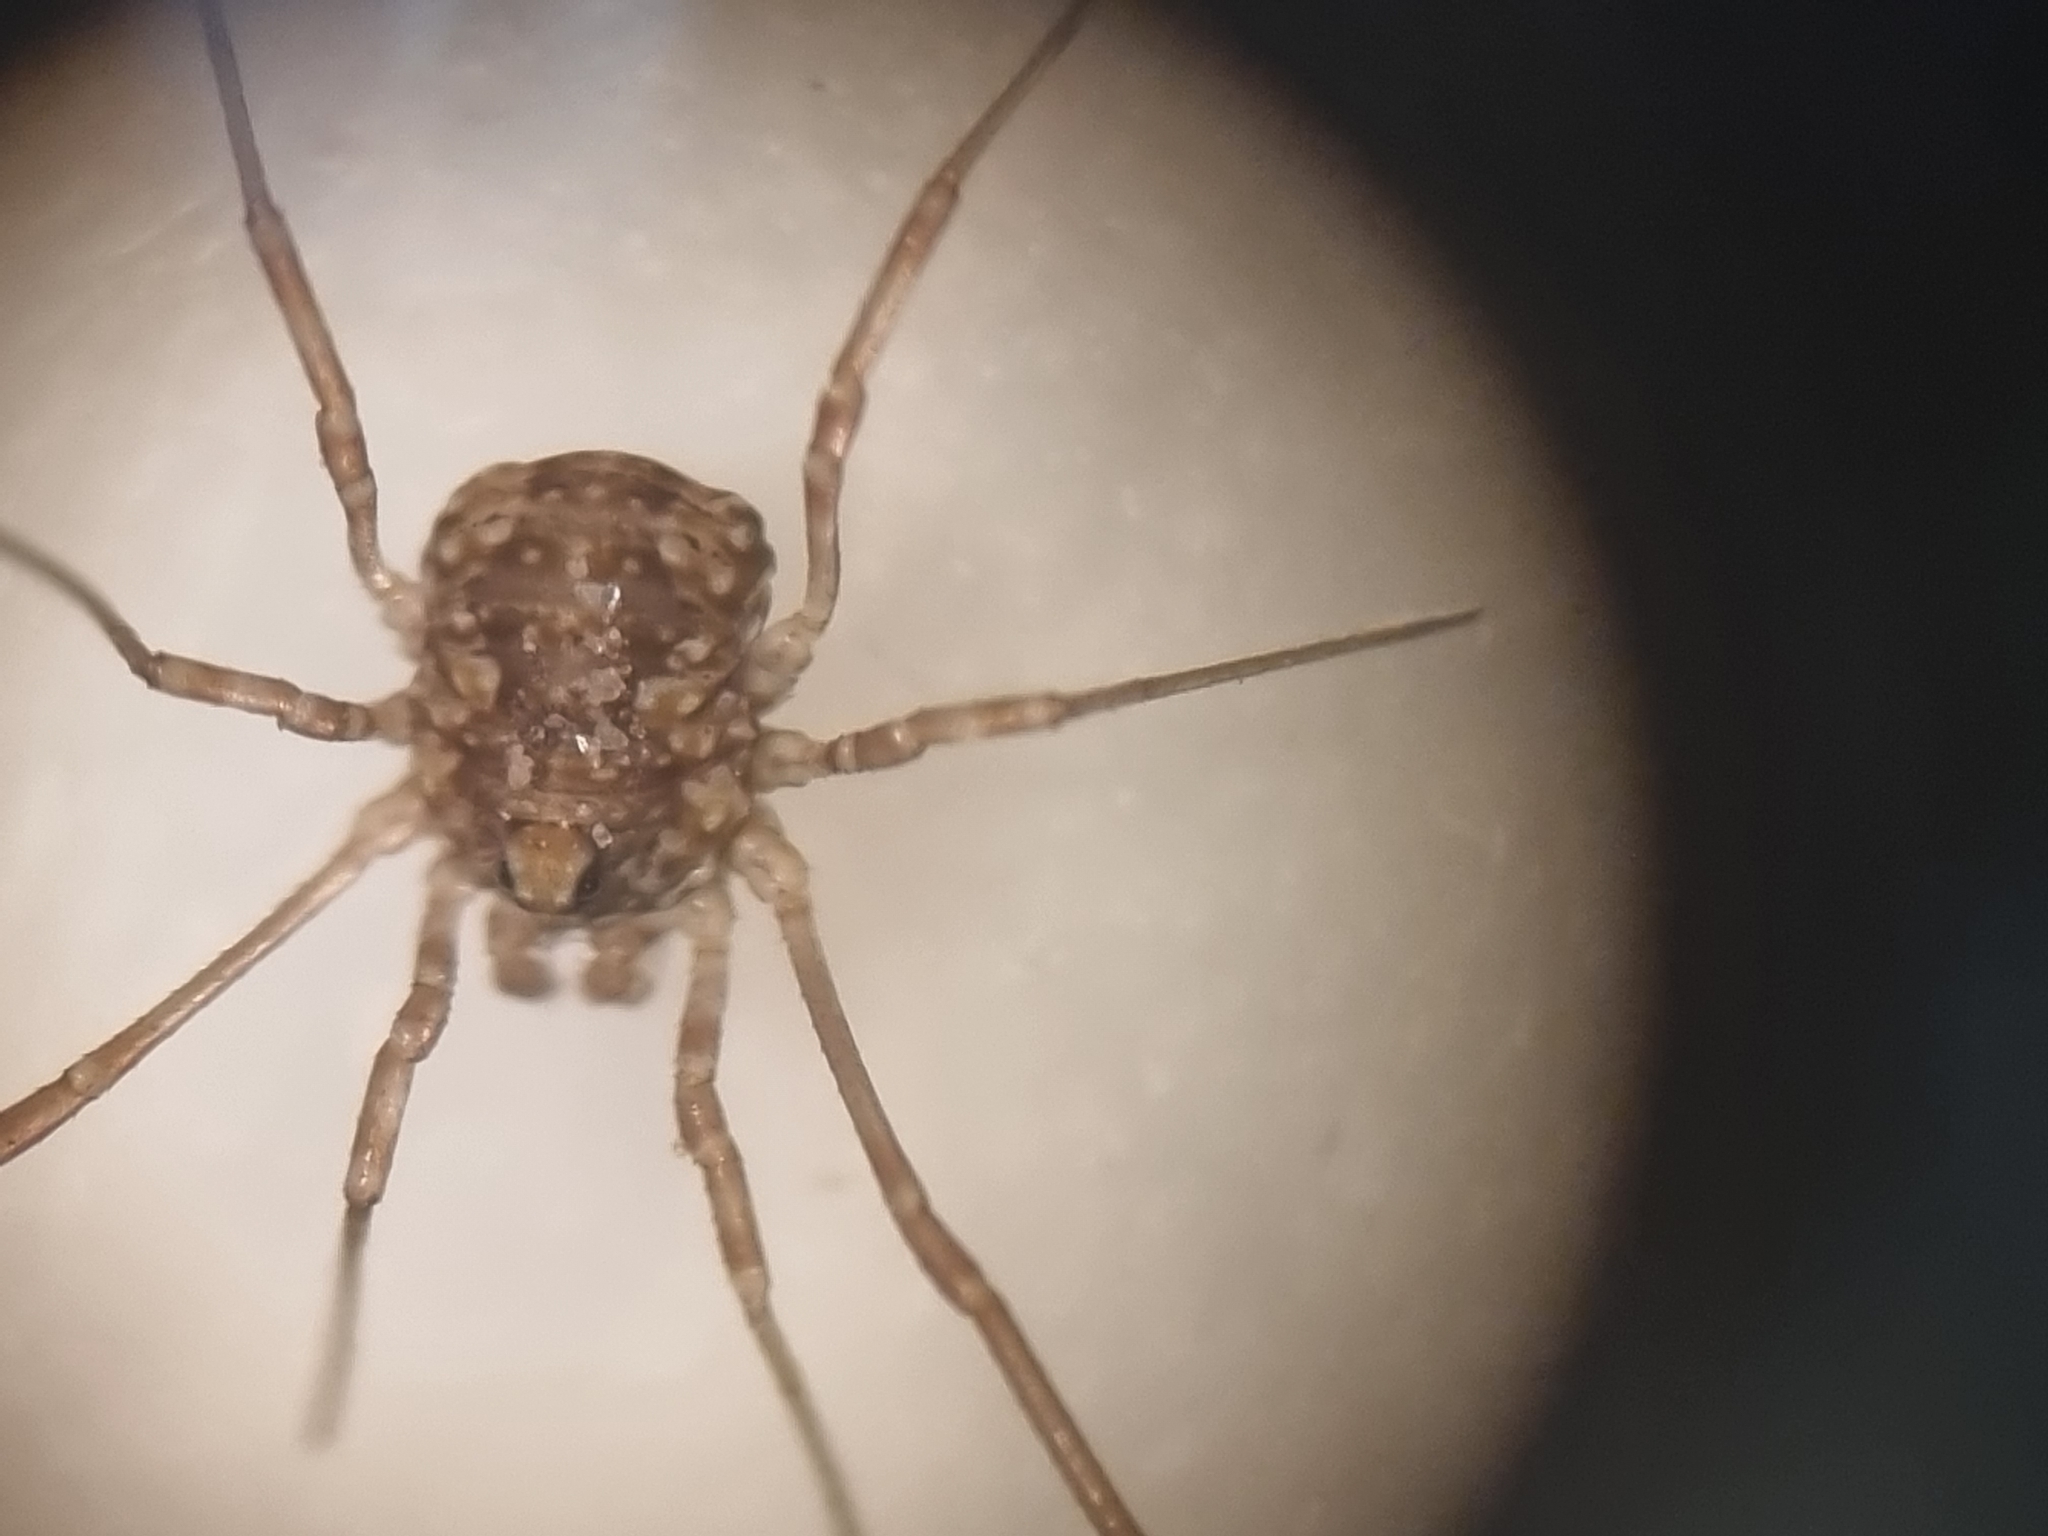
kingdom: Animalia
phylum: Arthropoda
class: Arachnida
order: Opiliones
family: Phalangiidae
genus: Phalangium
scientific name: Phalangium opilio
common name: Daddy longleg
